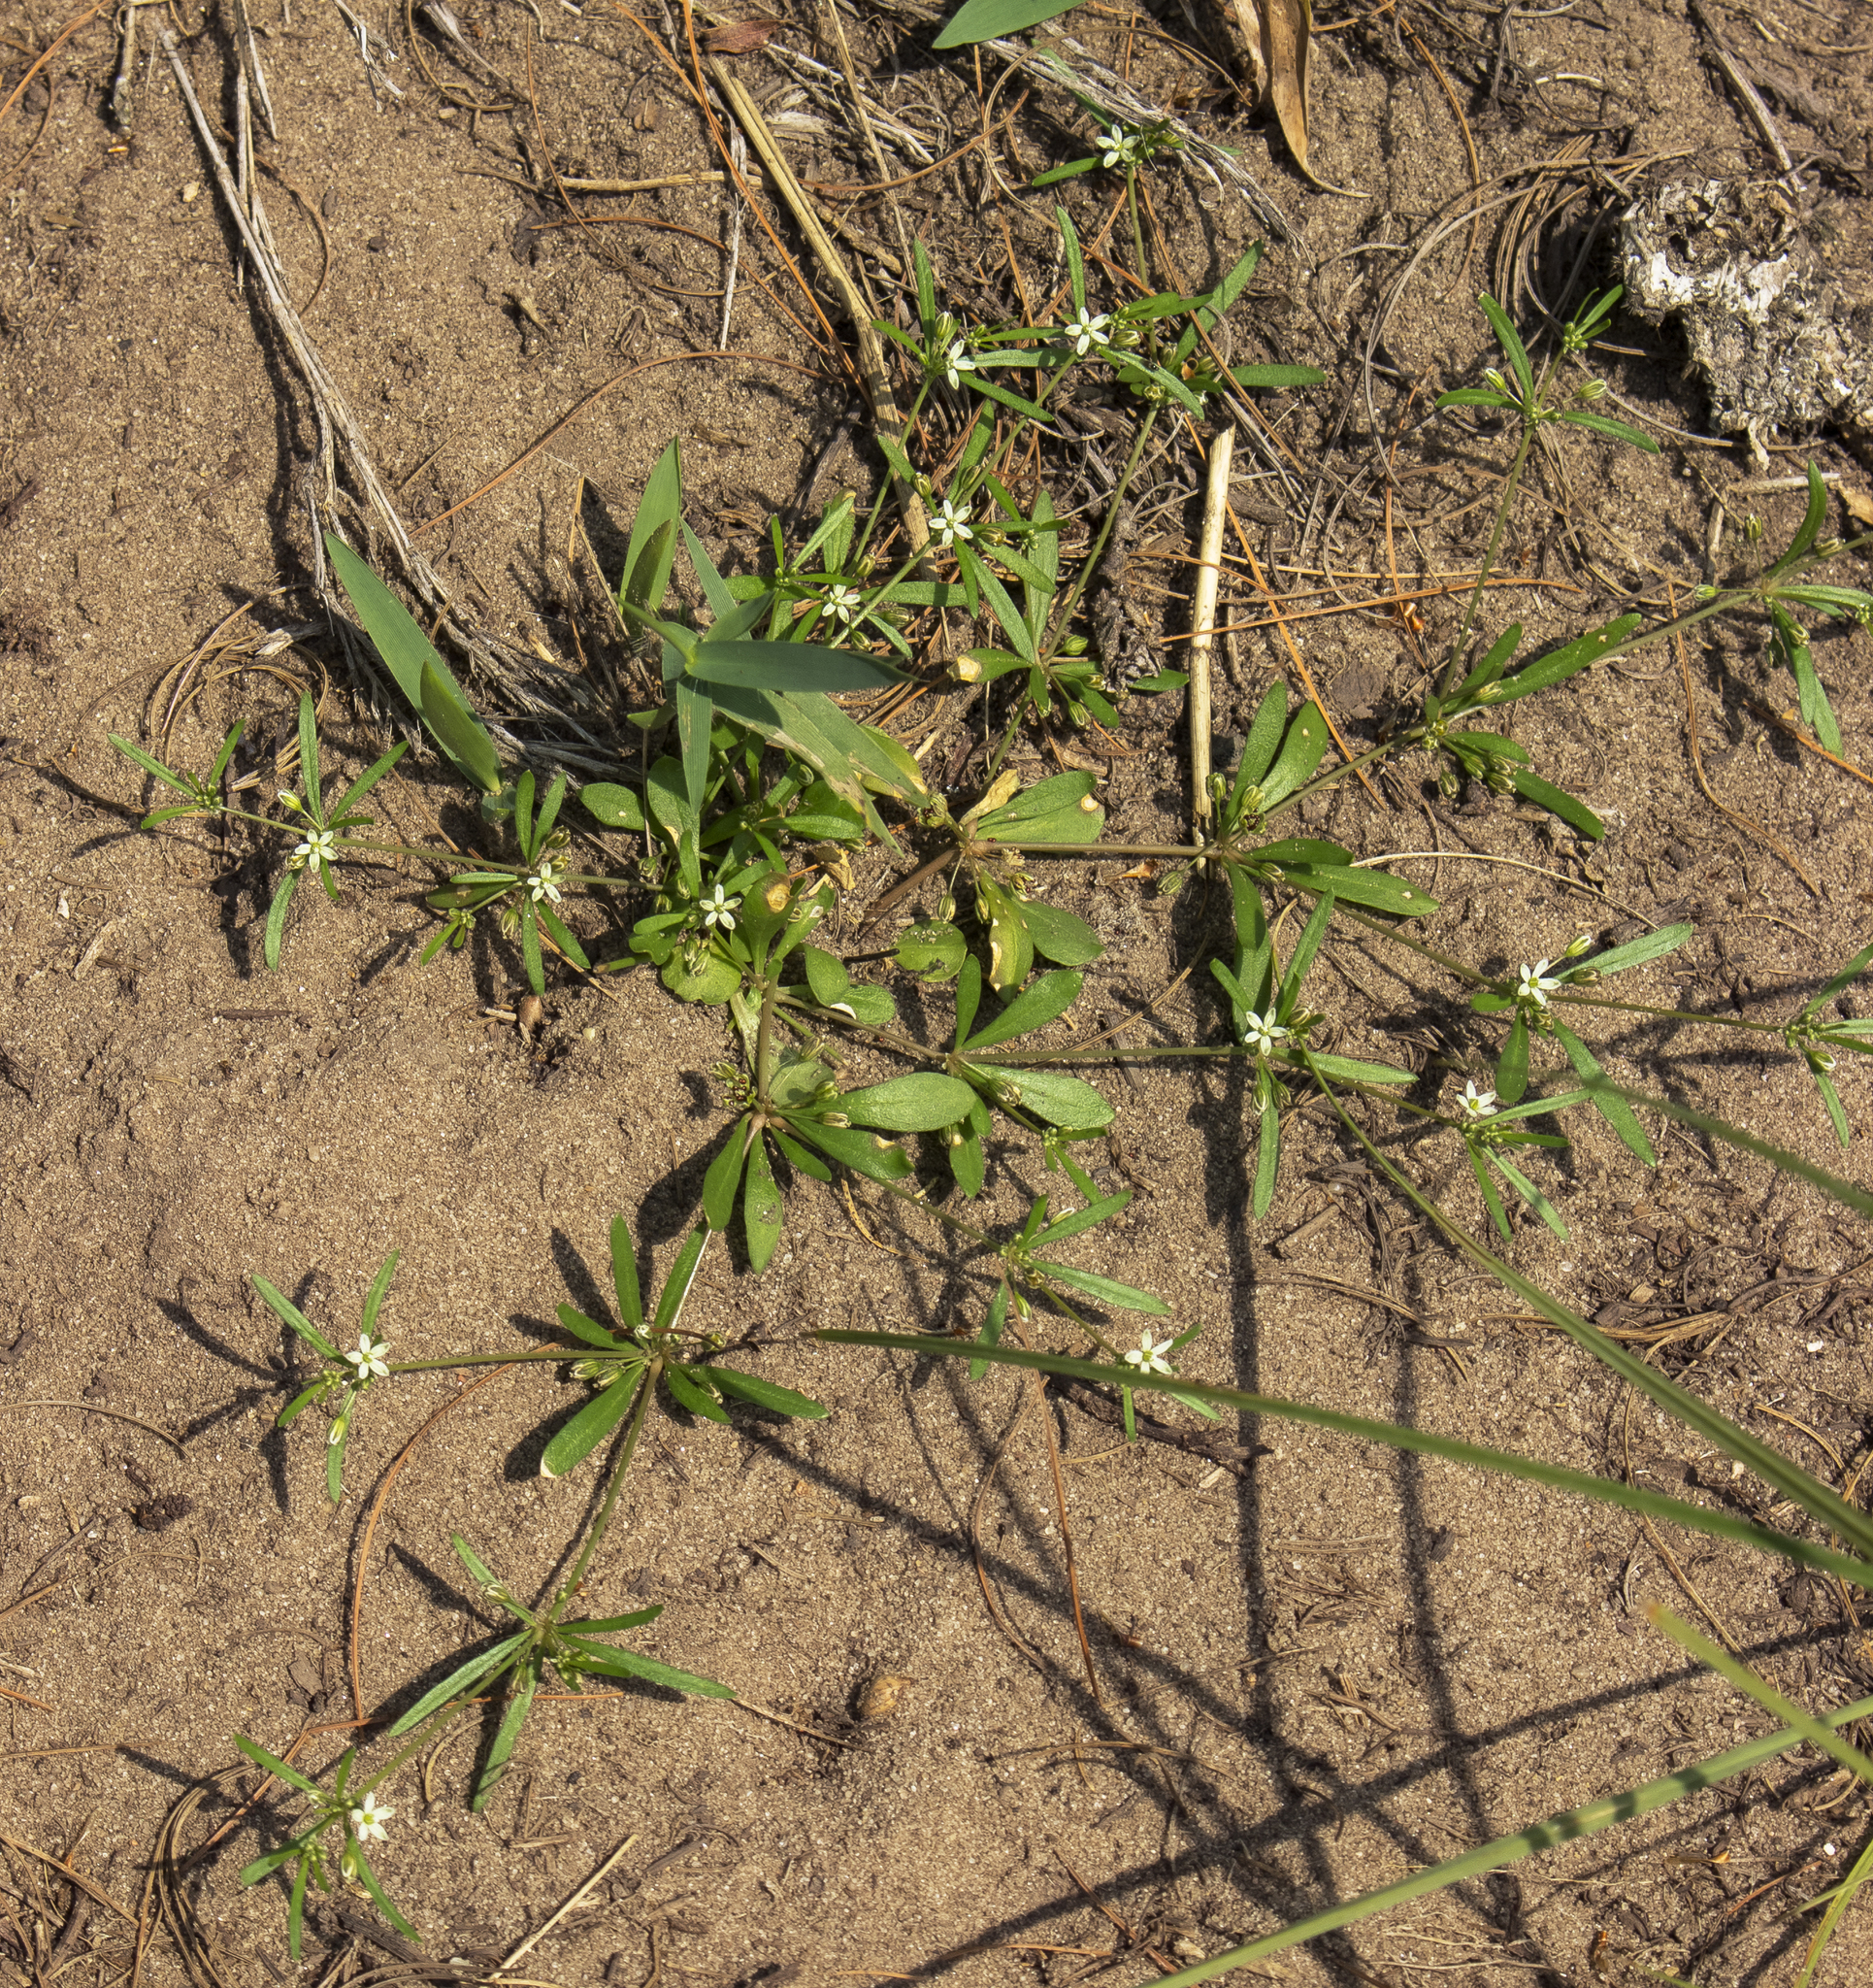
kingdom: Plantae
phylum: Tracheophyta
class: Magnoliopsida
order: Caryophyllales
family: Molluginaceae
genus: Mollugo
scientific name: Mollugo verticillata
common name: Green carpetweed
